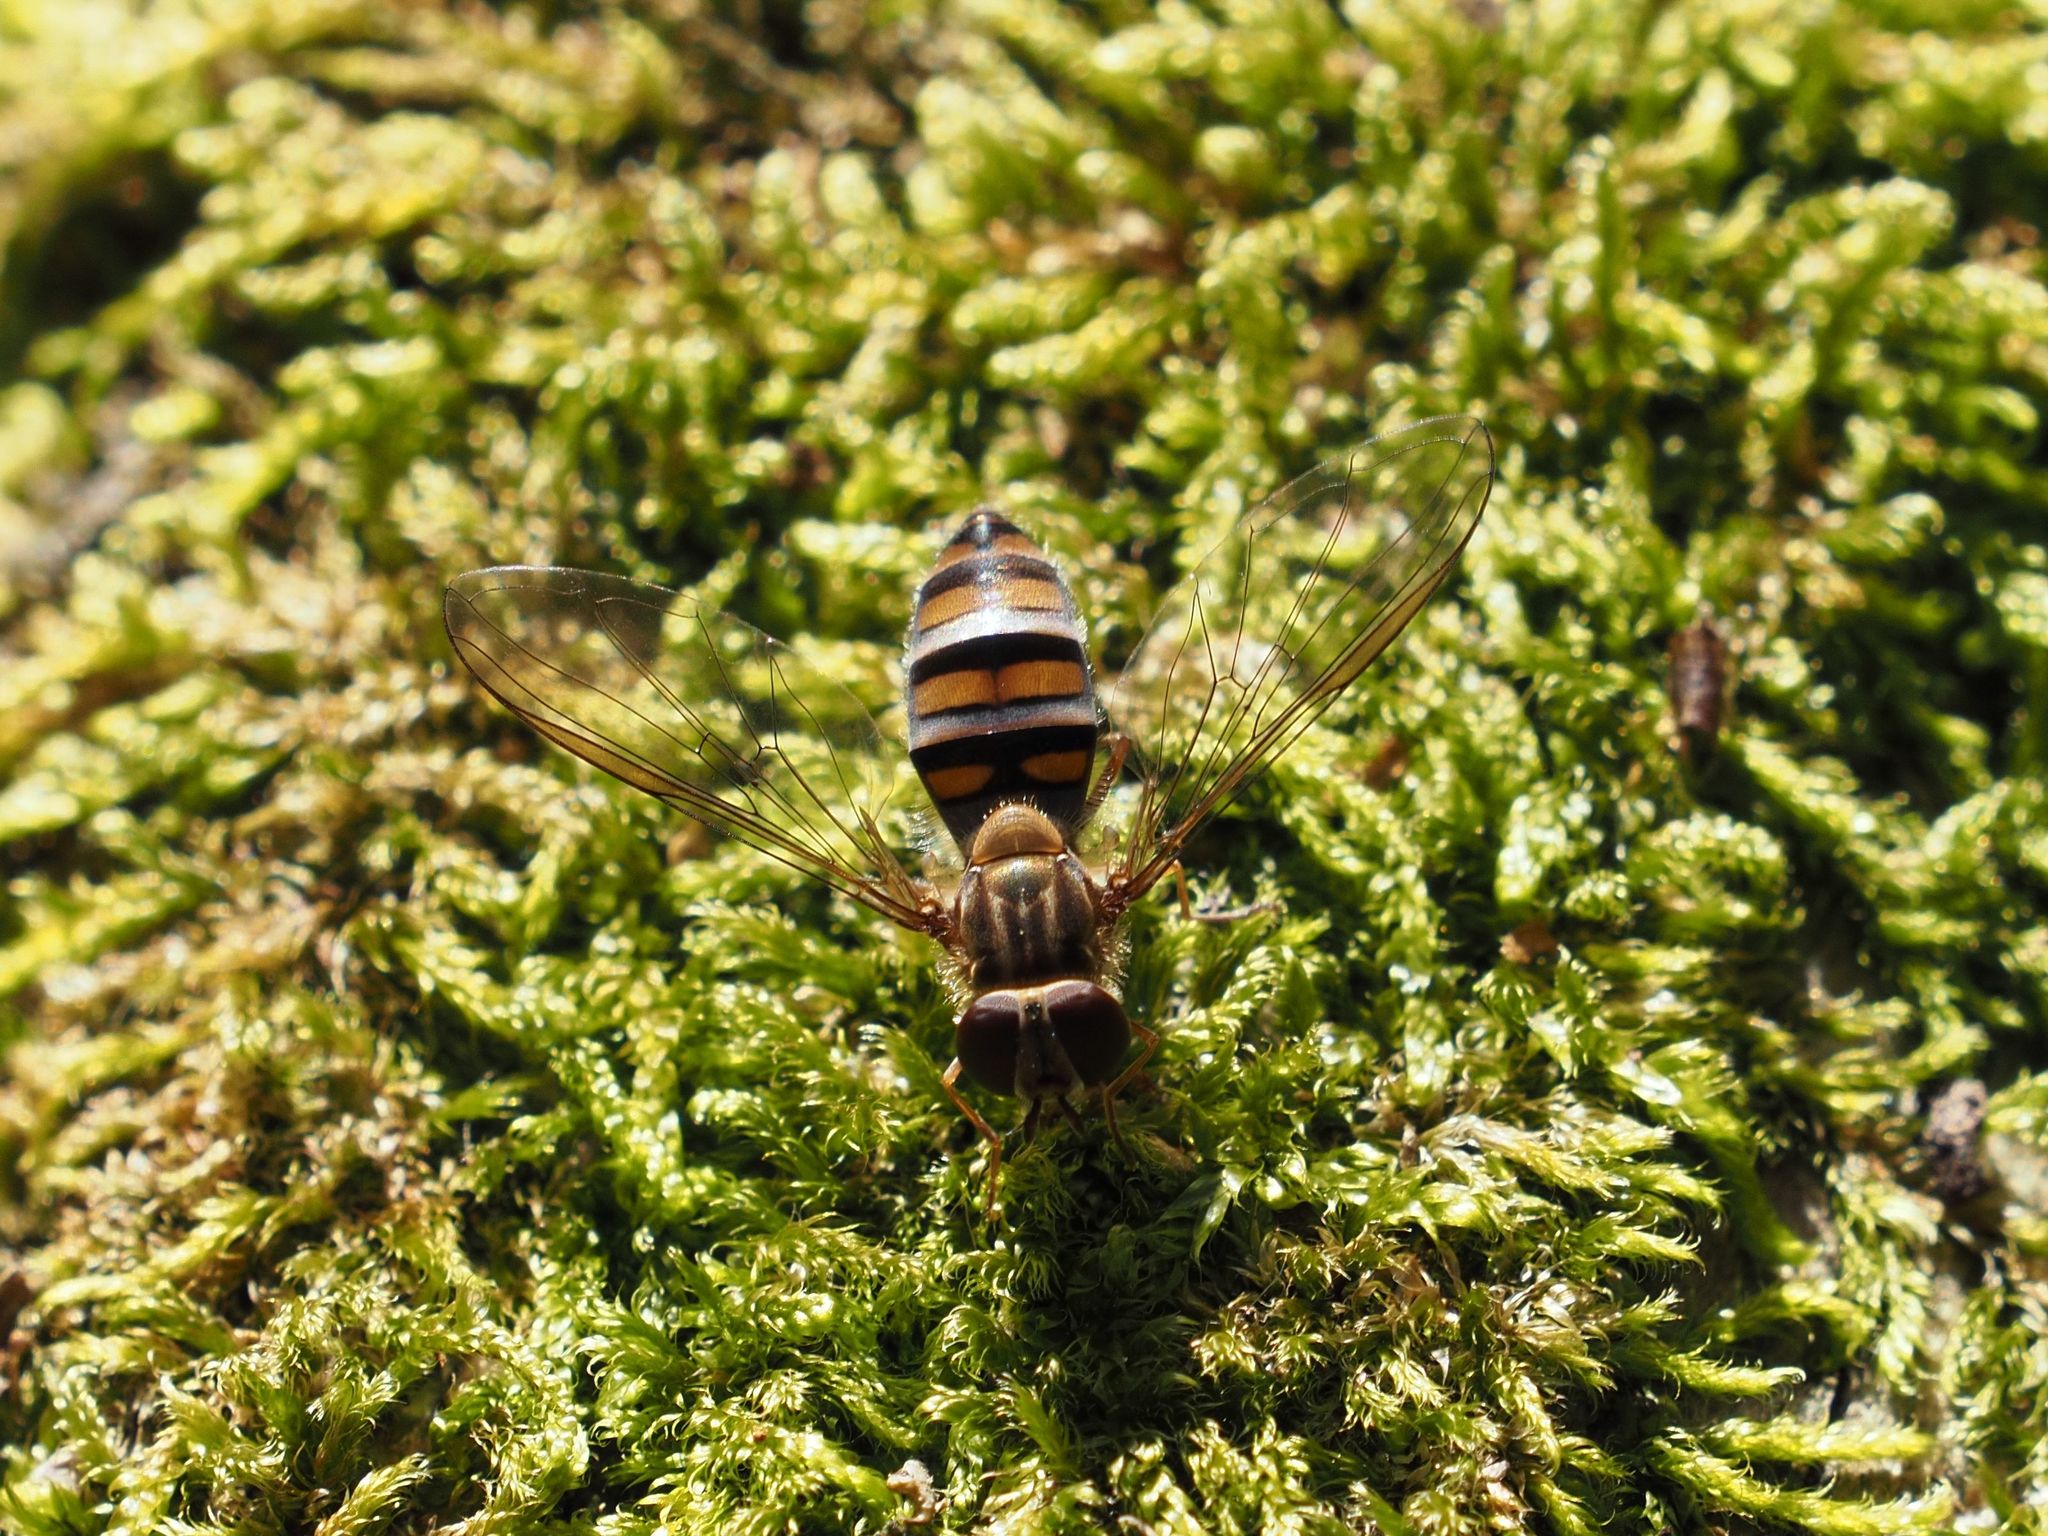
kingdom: Animalia
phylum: Arthropoda
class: Insecta
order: Diptera
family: Syrphidae
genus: Episyrphus
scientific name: Episyrphus balteatus
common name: Marmalade hoverfly
